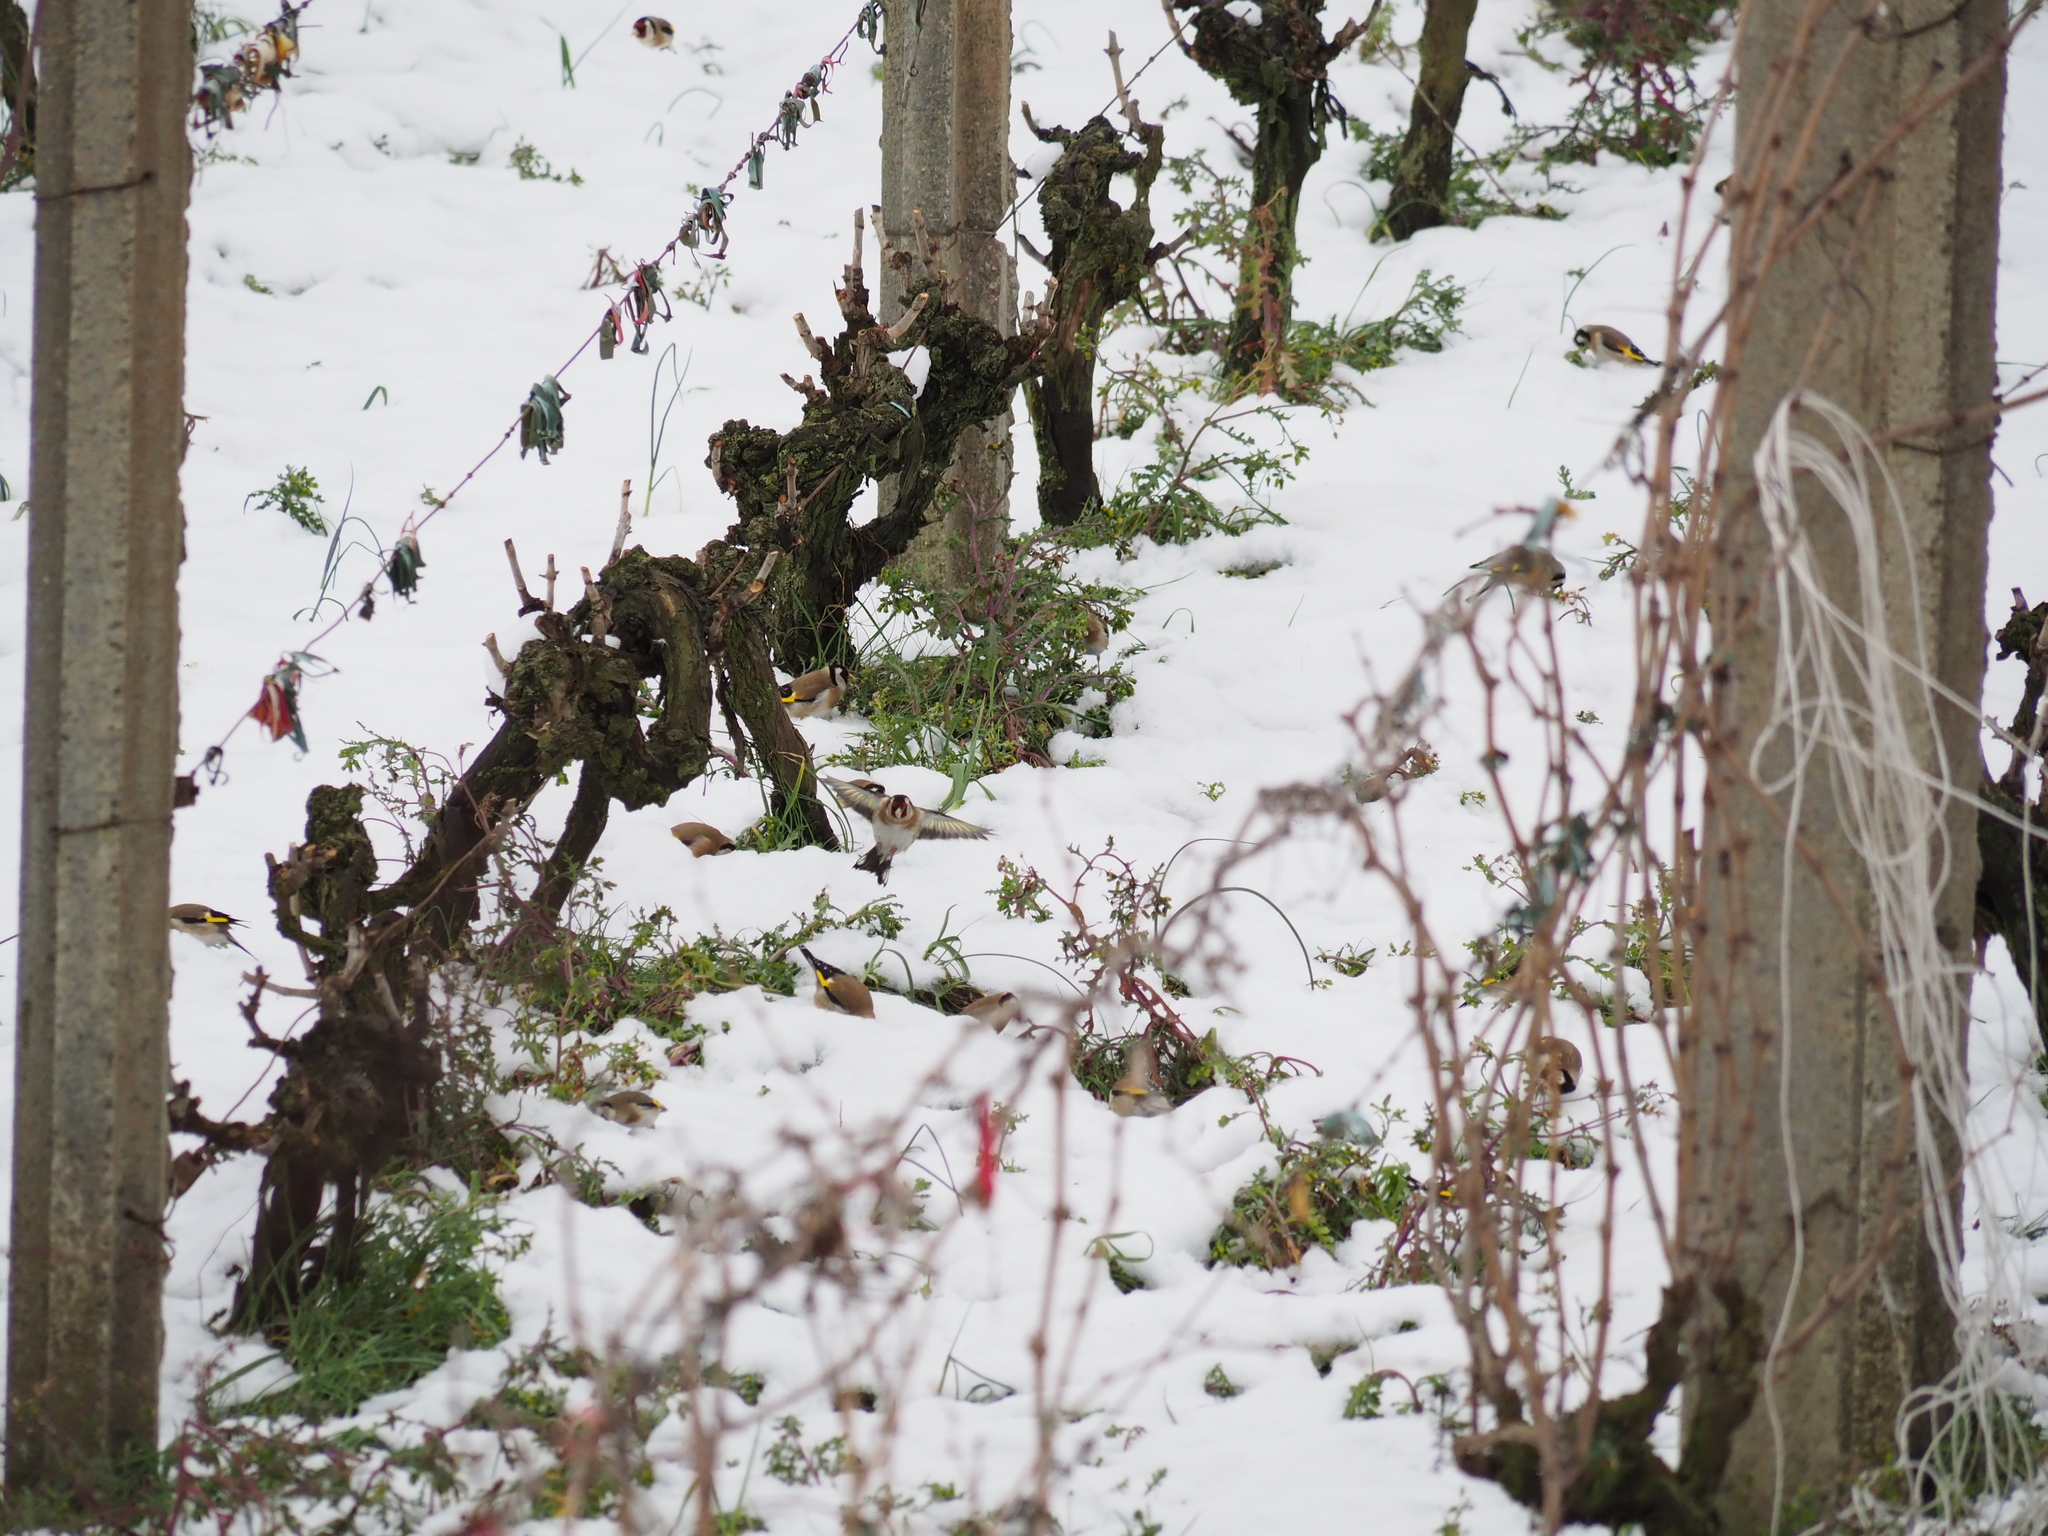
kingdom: Animalia
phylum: Chordata
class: Aves
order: Passeriformes
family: Fringillidae
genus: Carduelis
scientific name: Carduelis carduelis
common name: European goldfinch
